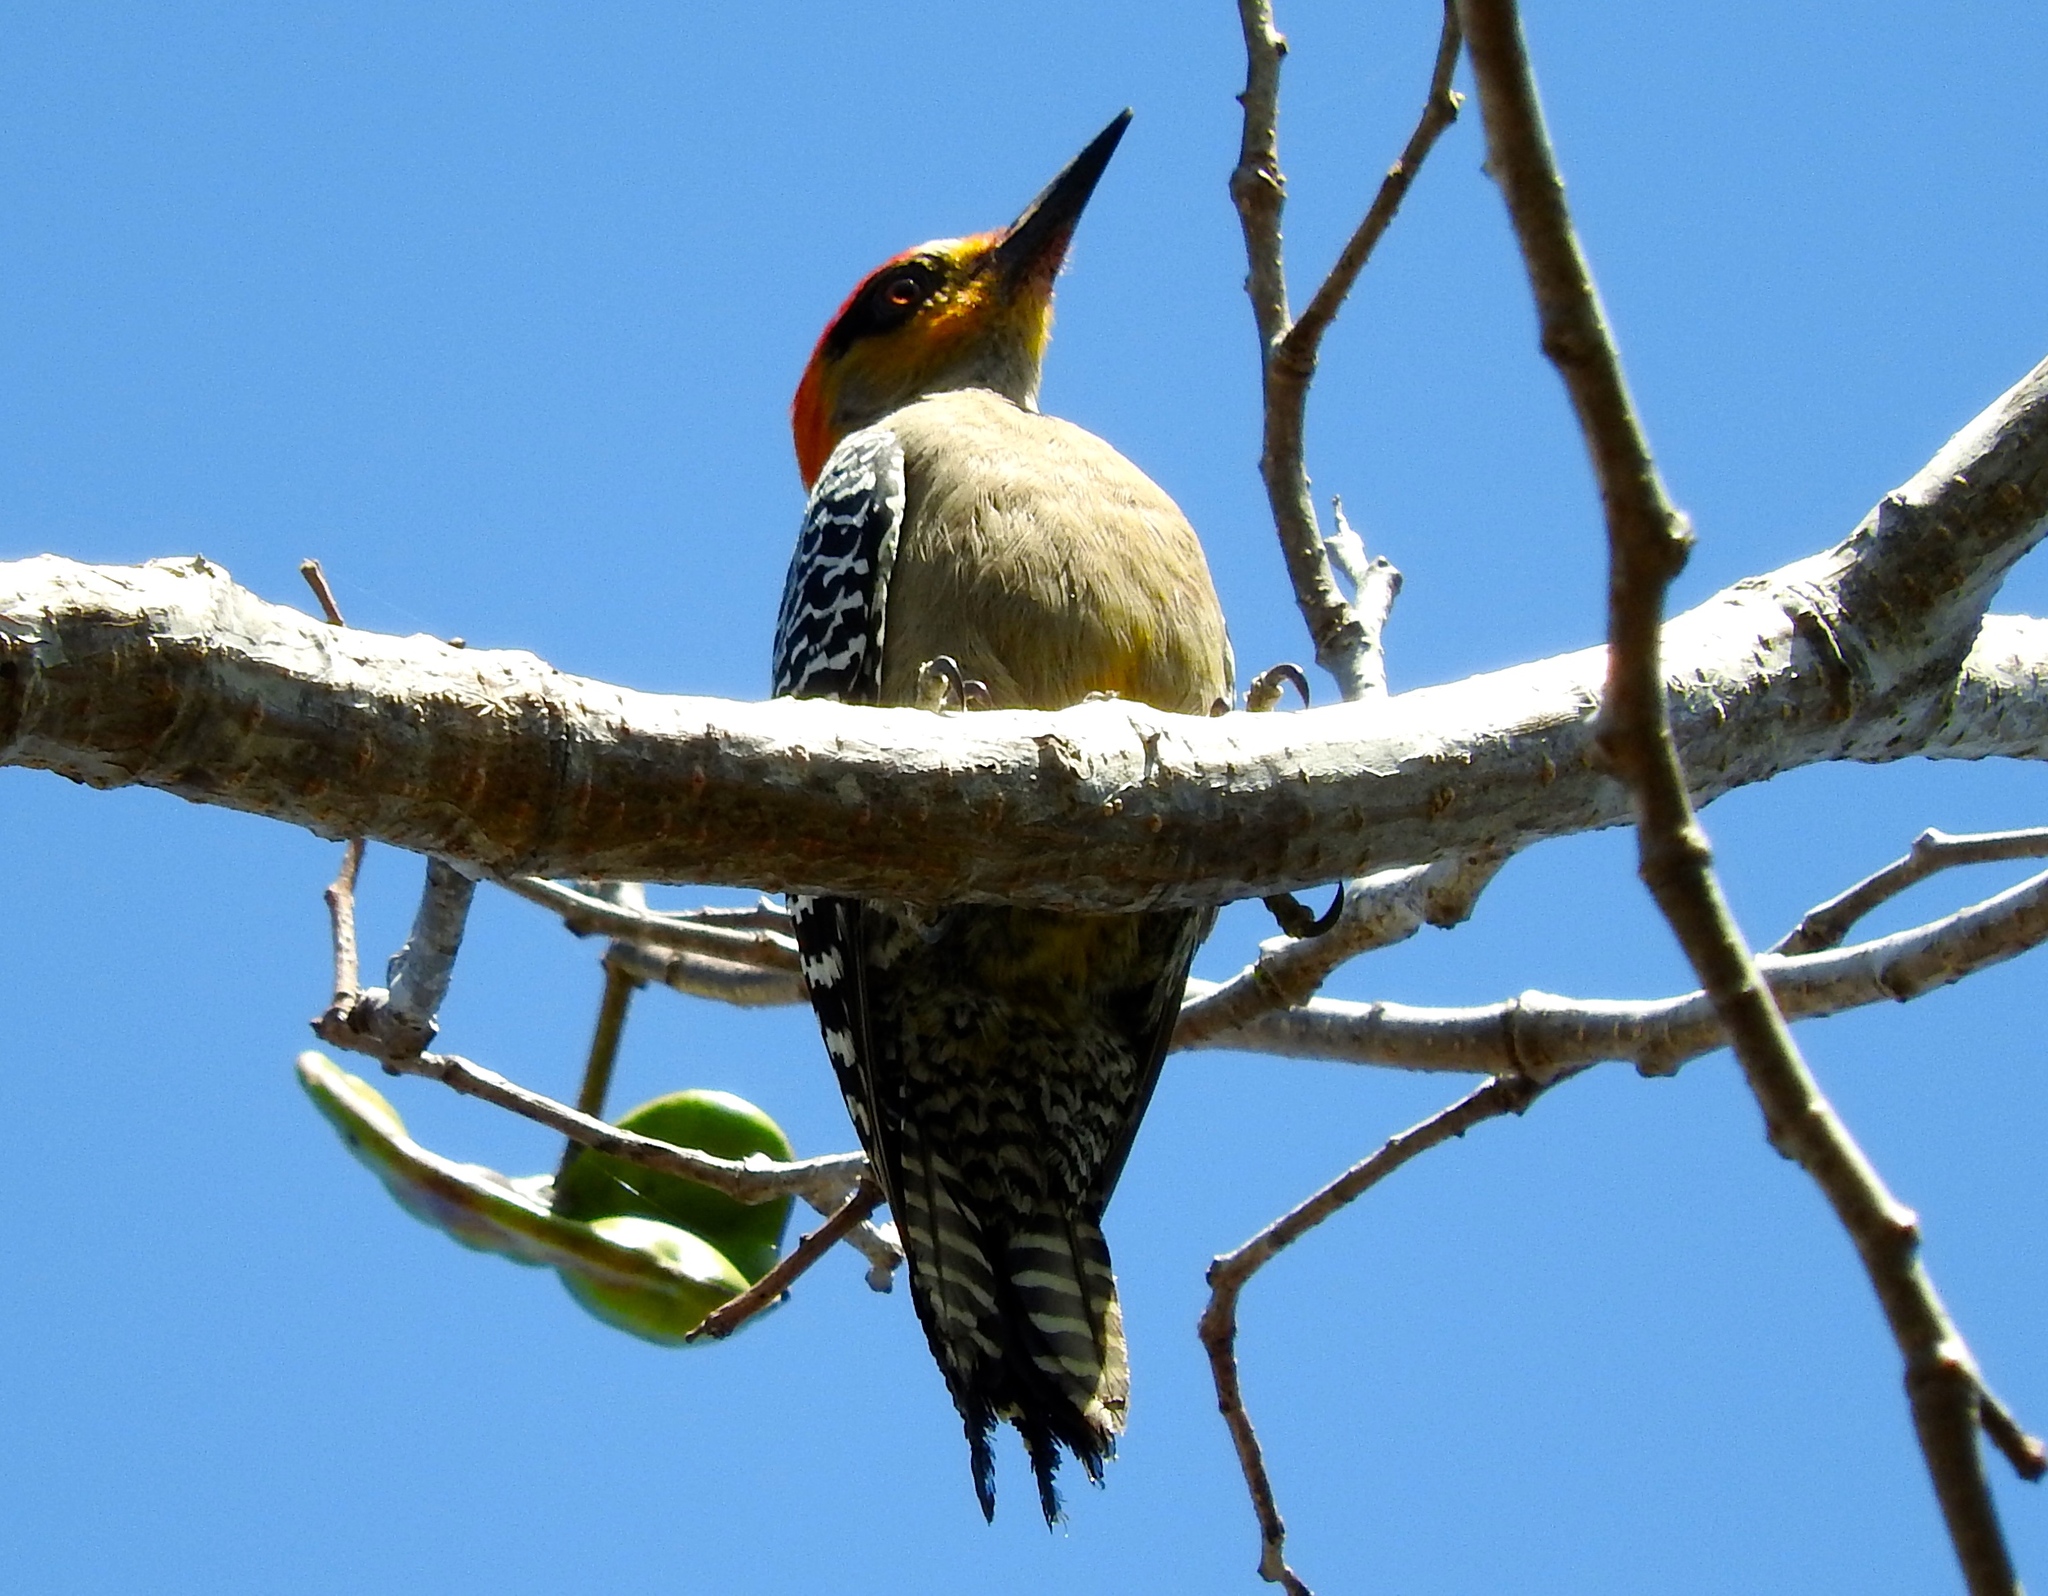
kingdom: Animalia
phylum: Chordata
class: Aves
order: Piciformes
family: Picidae
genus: Melanerpes
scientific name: Melanerpes chrysogenys
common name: Golden-cheeked woodpecker
